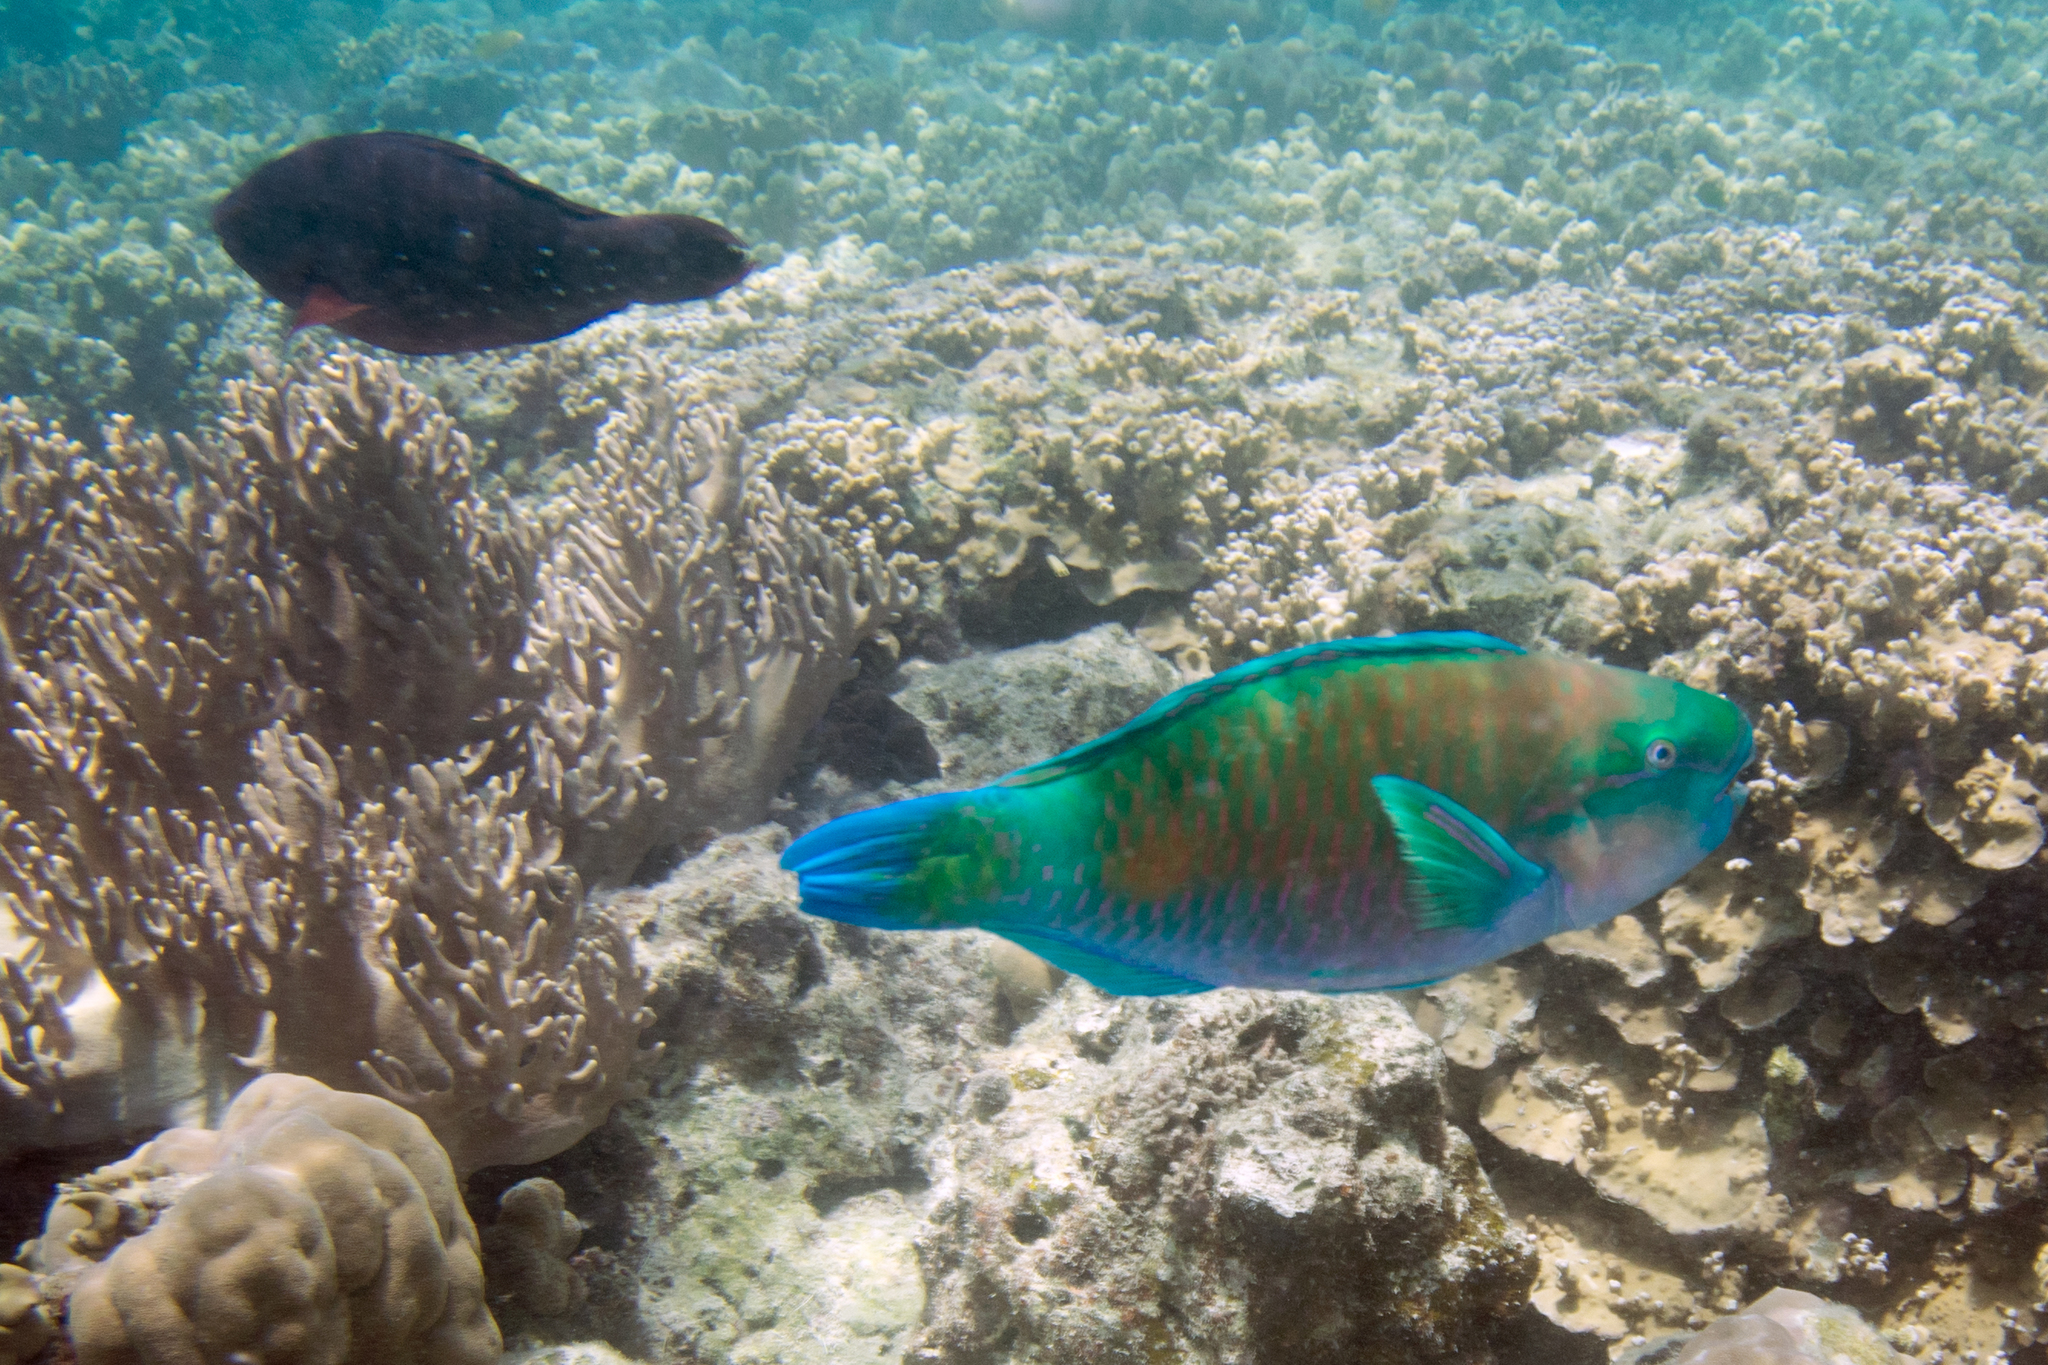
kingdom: Animalia
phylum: Chordata
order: Perciformes
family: Scaridae
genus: Chlorurus
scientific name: Chlorurus spilurus
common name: Bullethead parrotfish
